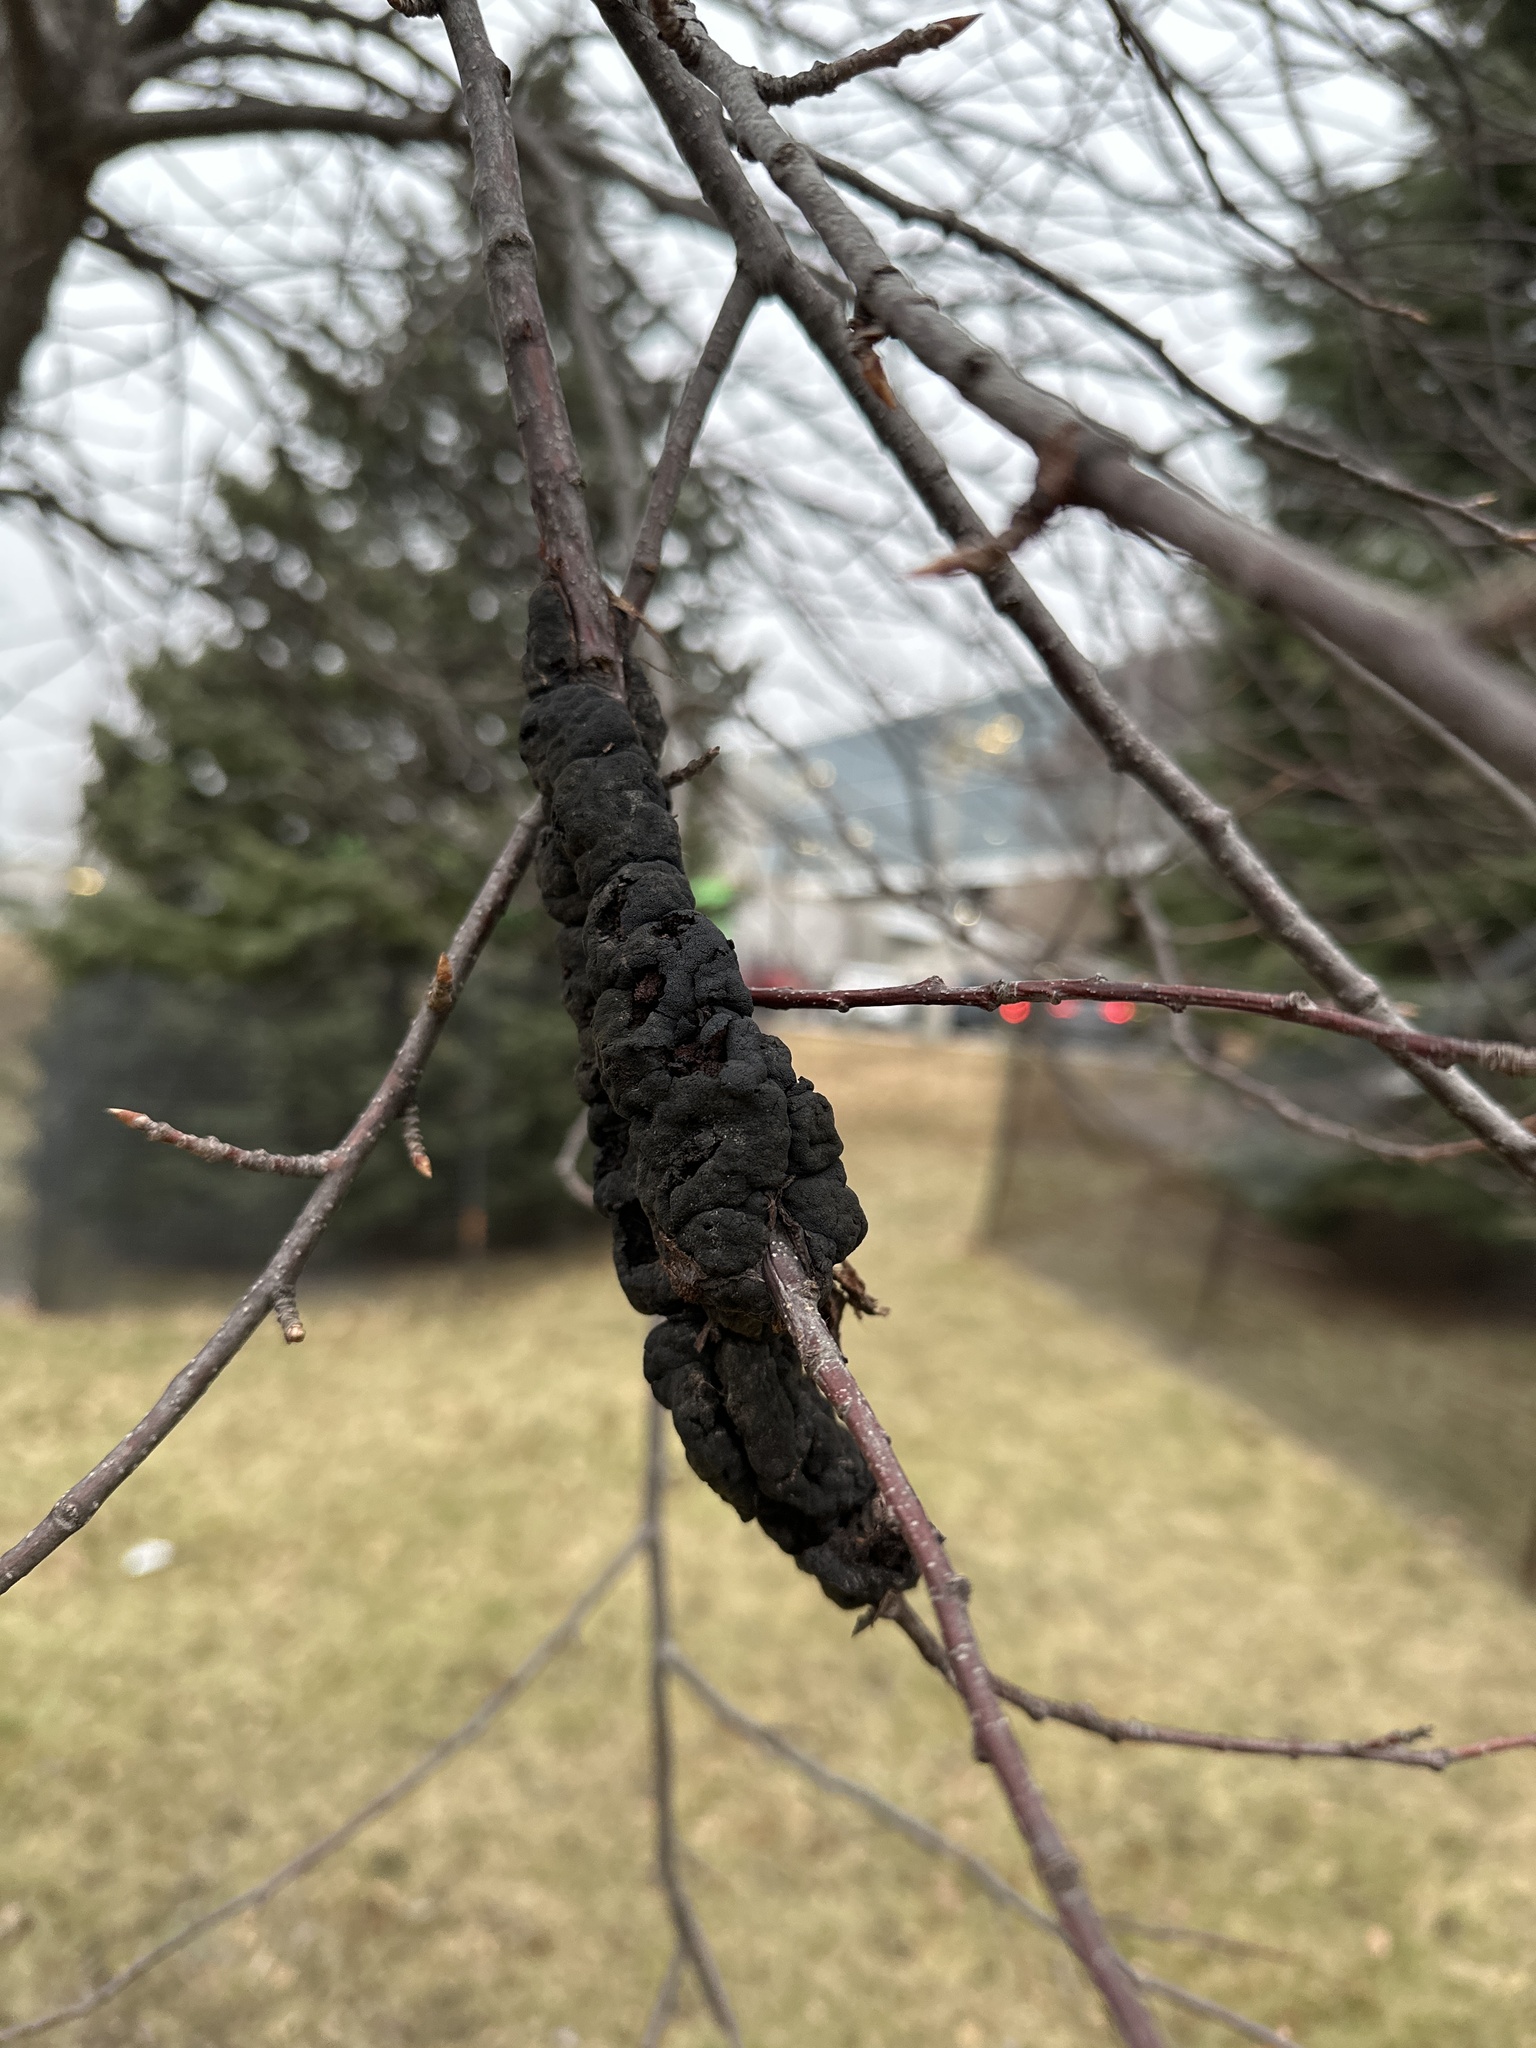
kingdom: Fungi
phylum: Ascomycota
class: Dothideomycetes
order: Venturiales
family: Venturiaceae
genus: Apiosporina
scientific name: Apiosporina morbosa
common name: Black knot
